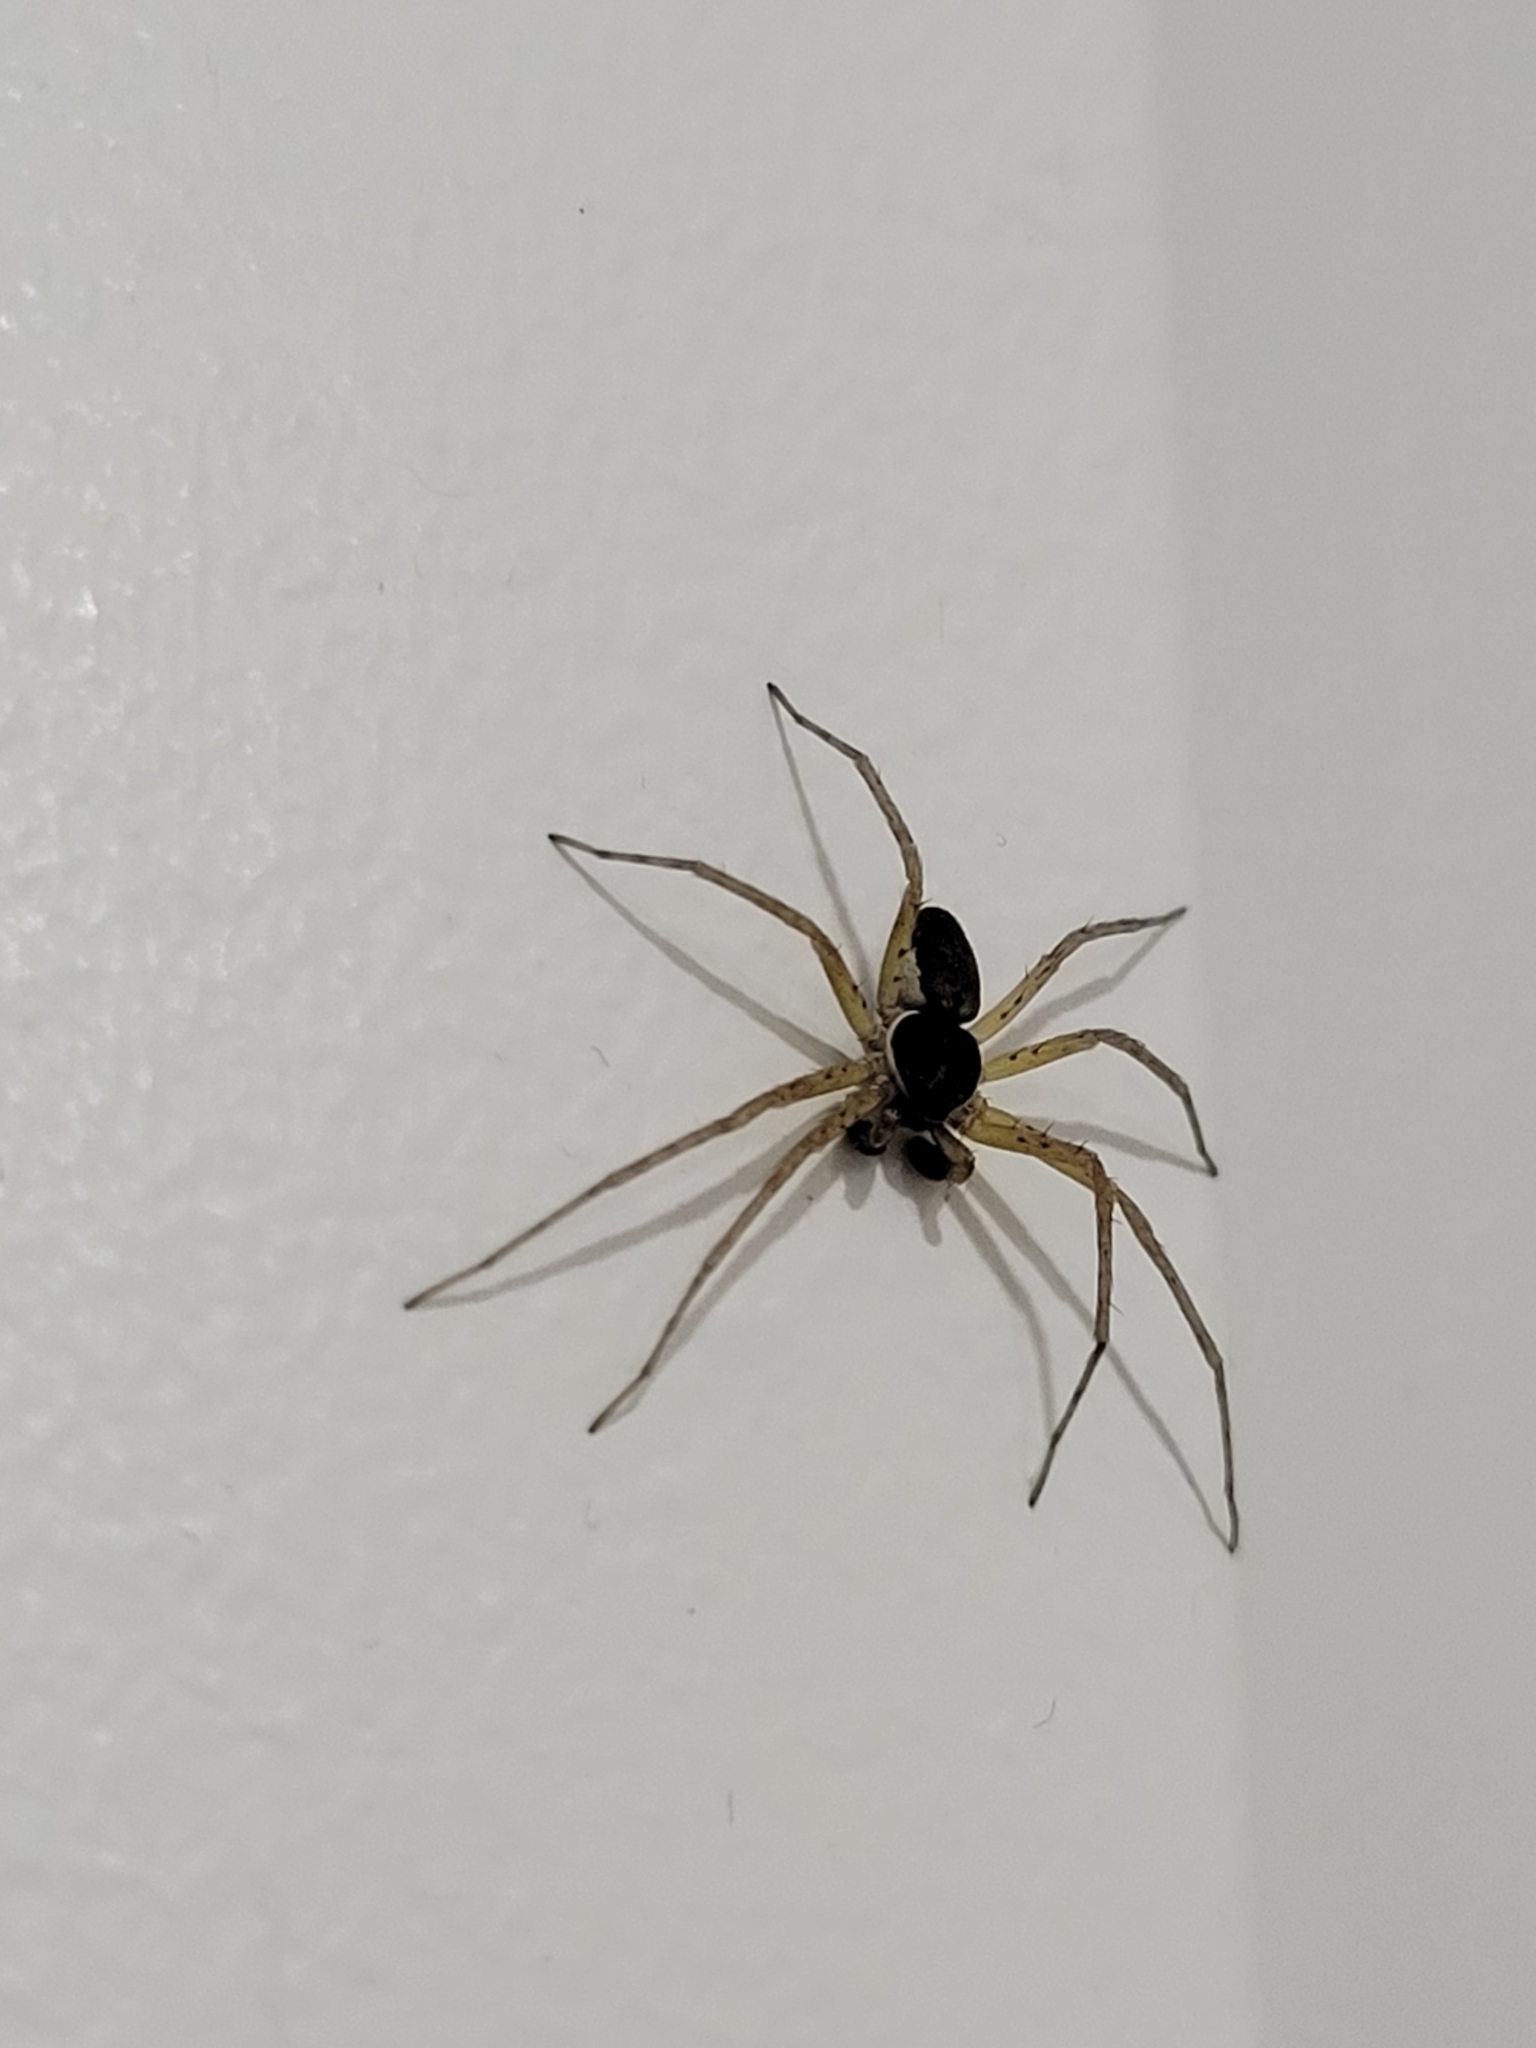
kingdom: Animalia
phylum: Arthropoda
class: Arachnida
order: Araneae
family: Philodromidae
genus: Philodromus
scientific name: Philodromus dispar
